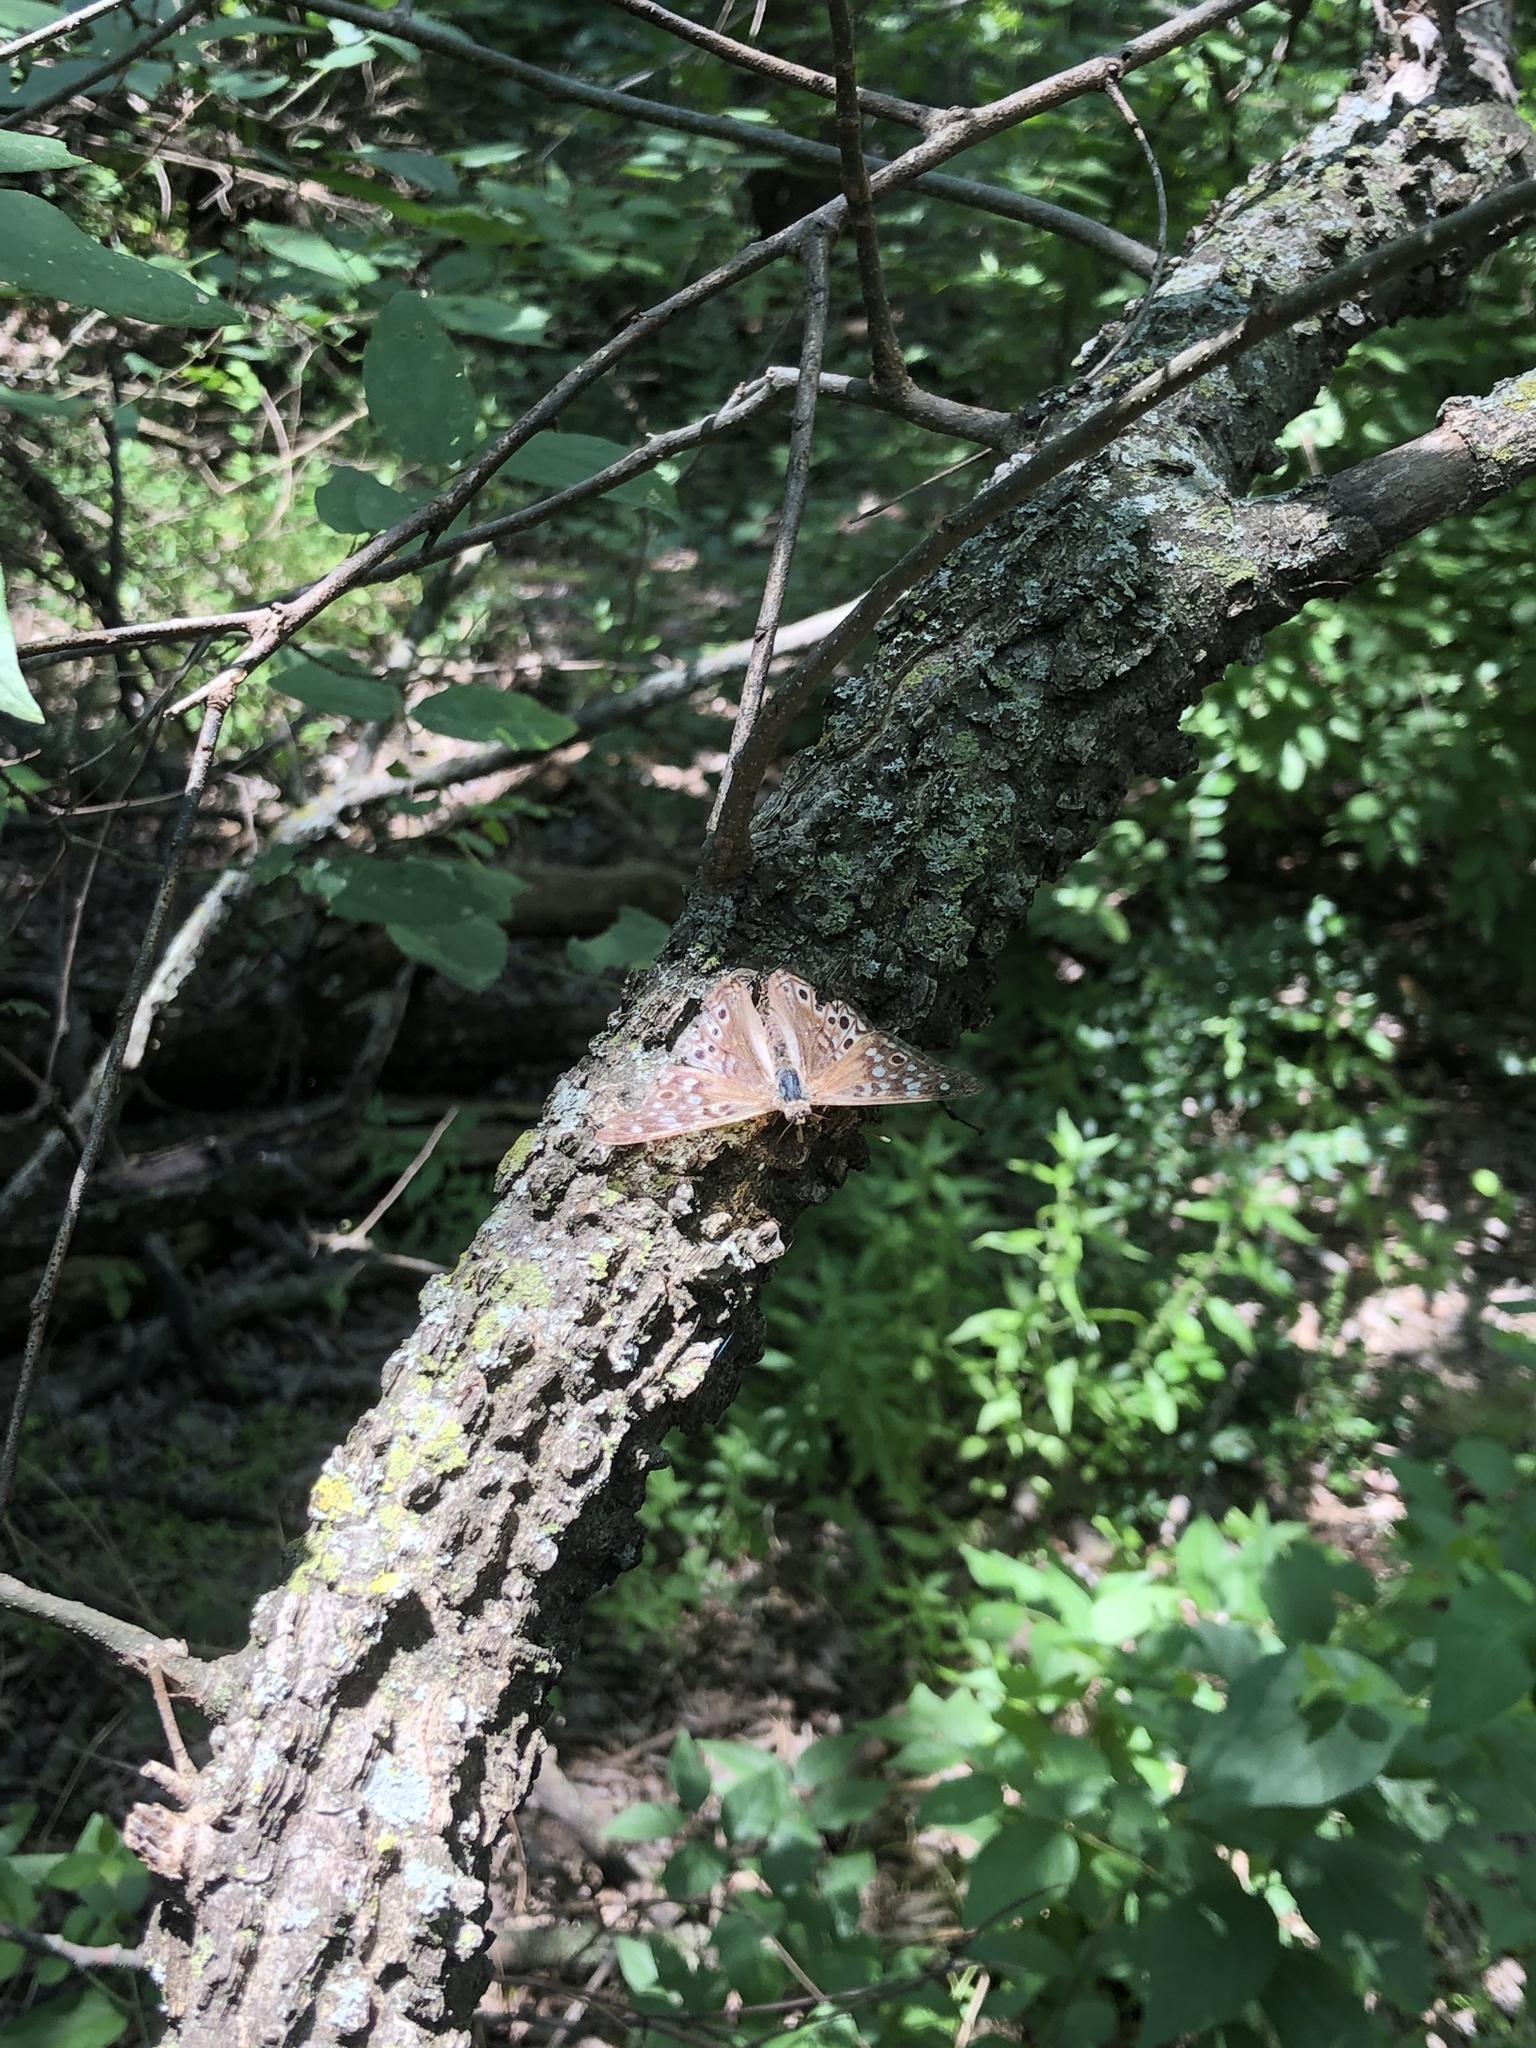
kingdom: Animalia
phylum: Arthropoda
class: Insecta
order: Lepidoptera
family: Nymphalidae
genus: Asterocampa
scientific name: Asterocampa celtis
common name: Hackberry emperor
